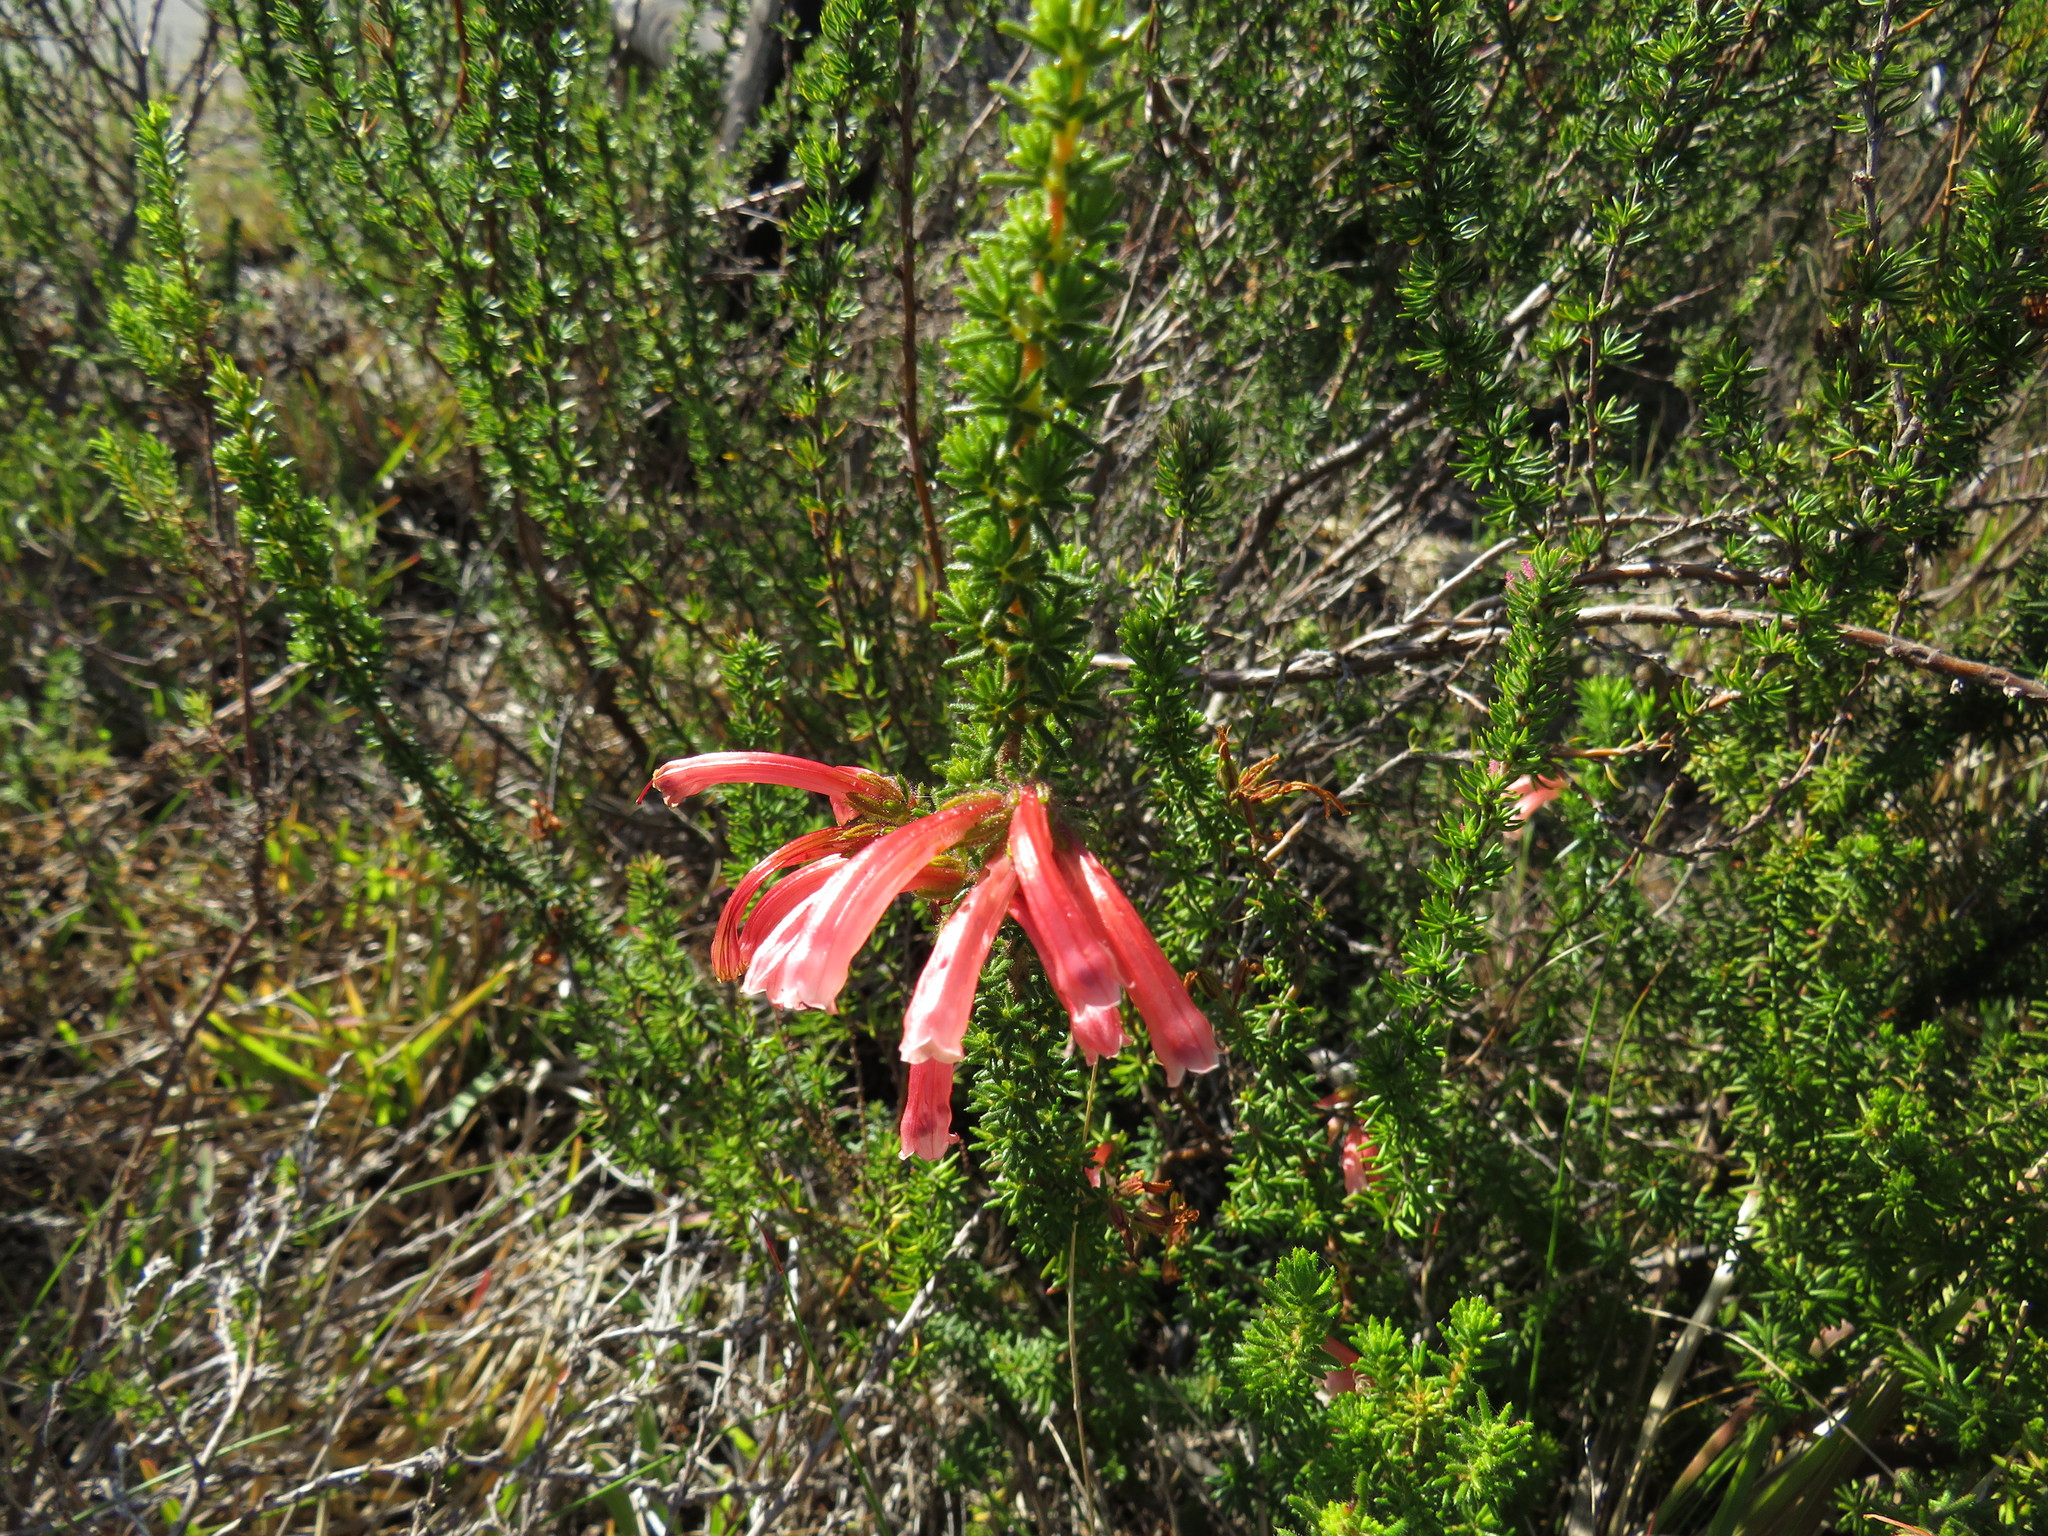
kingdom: Plantae
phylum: Tracheophyta
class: Magnoliopsida
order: Ericales
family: Ericaceae
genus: Erica
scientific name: Erica glandulosa
